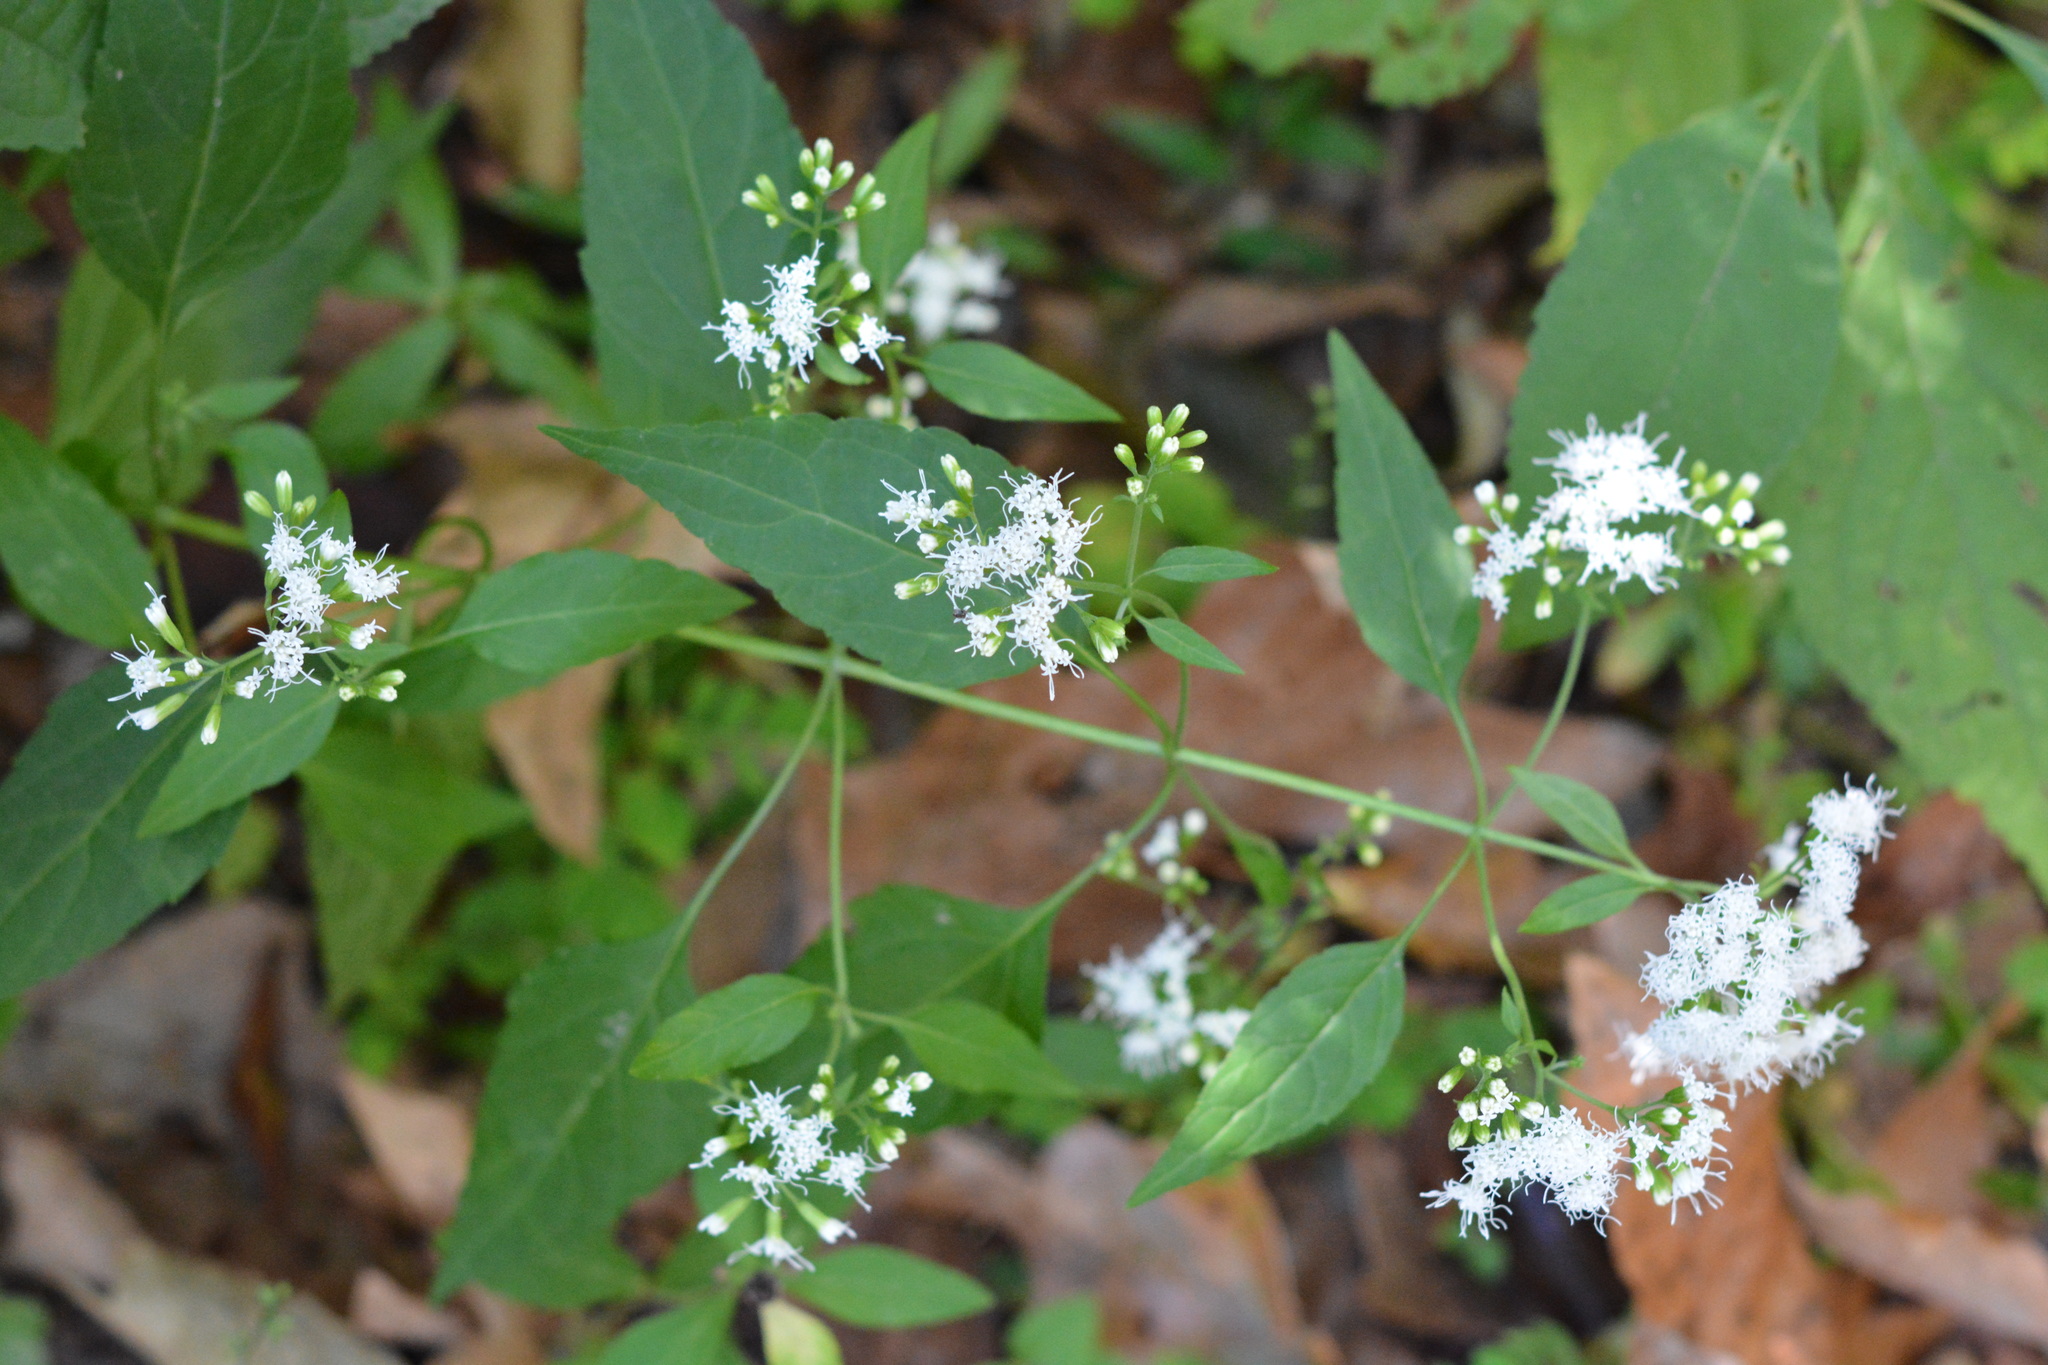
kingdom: Plantae
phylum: Tracheophyta
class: Magnoliopsida
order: Asterales
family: Asteraceae
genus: Ageratina
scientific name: Ageratina altissima
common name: White snakeroot
